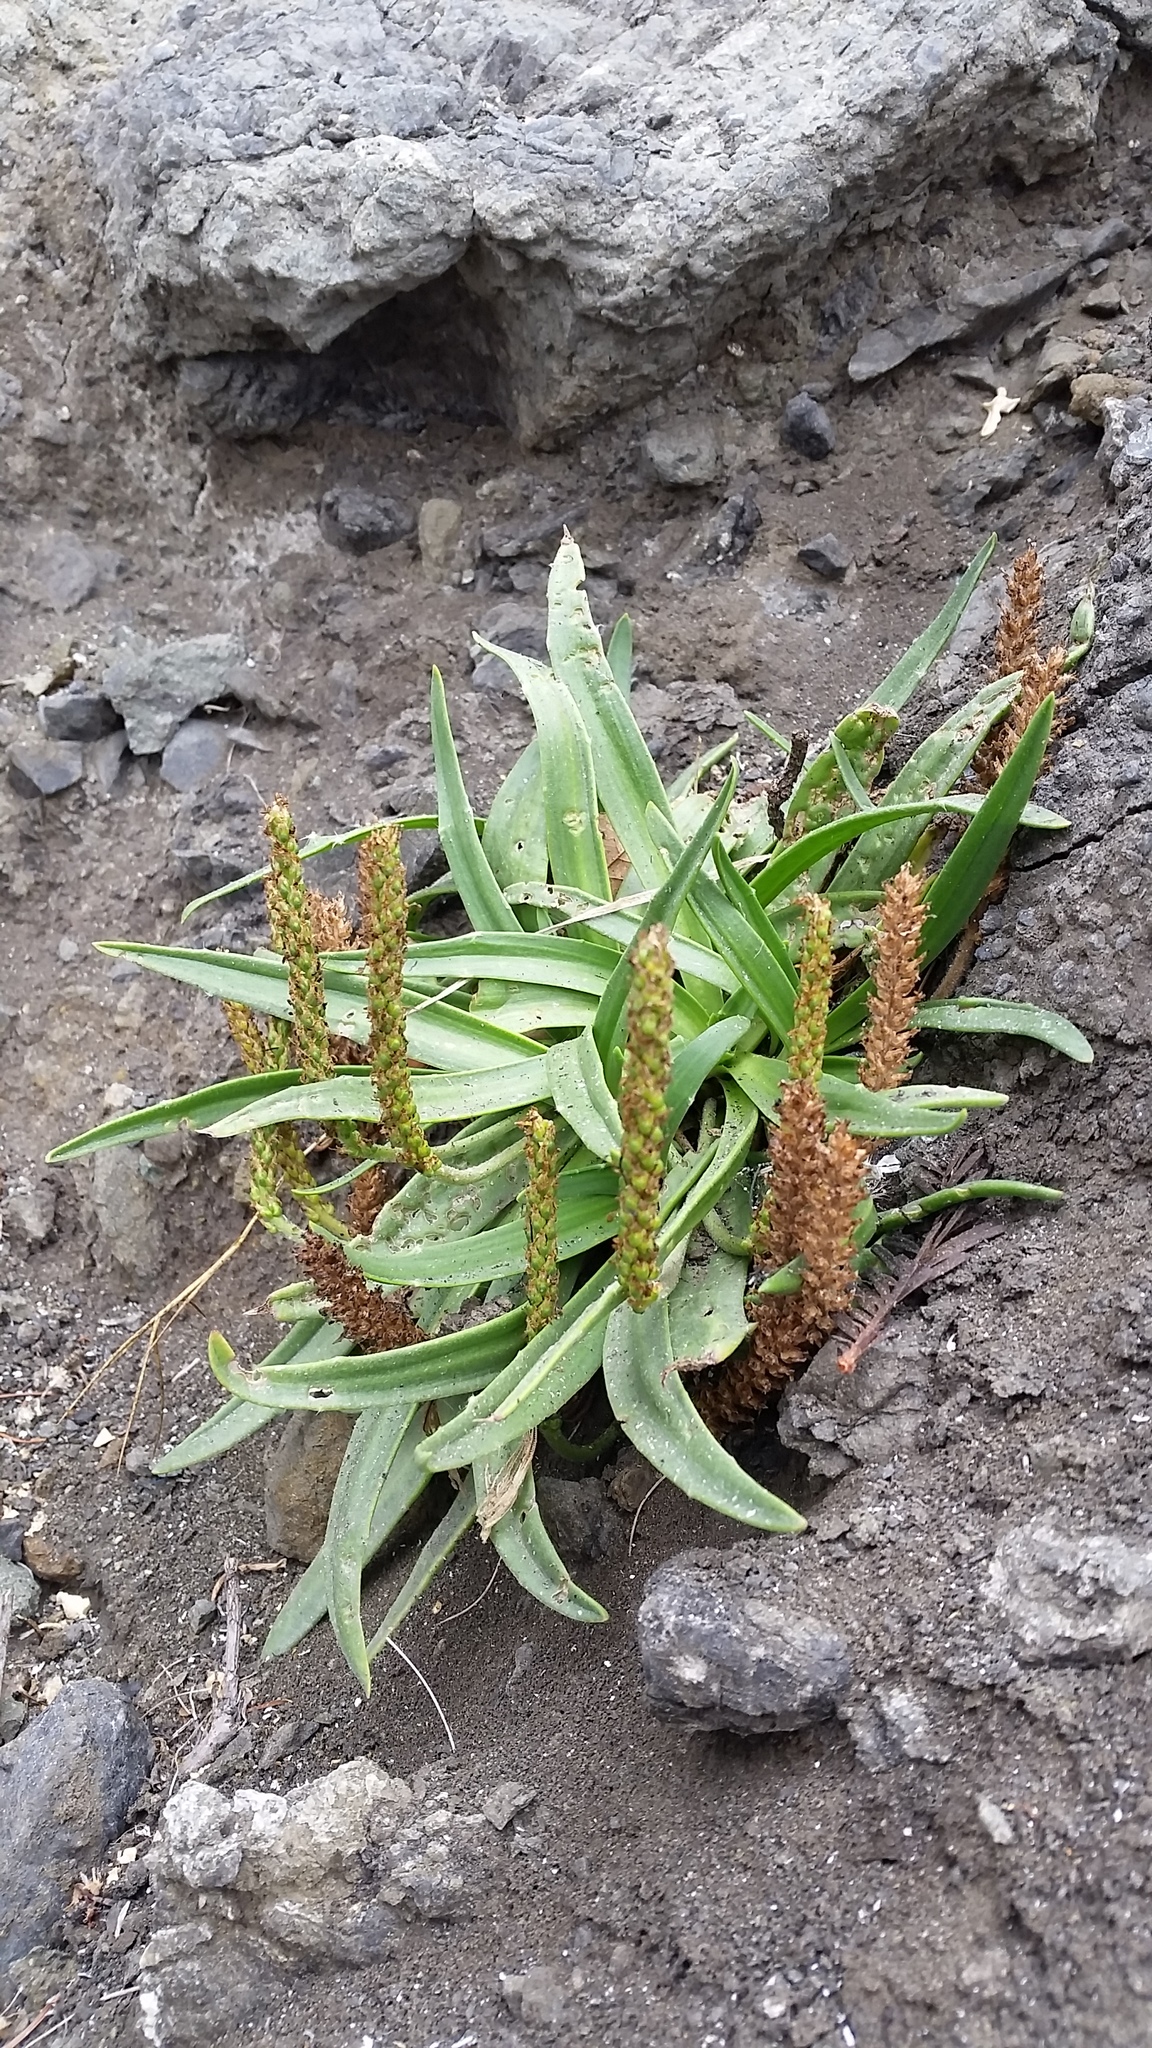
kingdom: Plantae
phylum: Tracheophyta
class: Magnoliopsida
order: Lamiales
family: Plantaginaceae
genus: Plantago
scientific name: Plantago maritima
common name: Sea plantain
